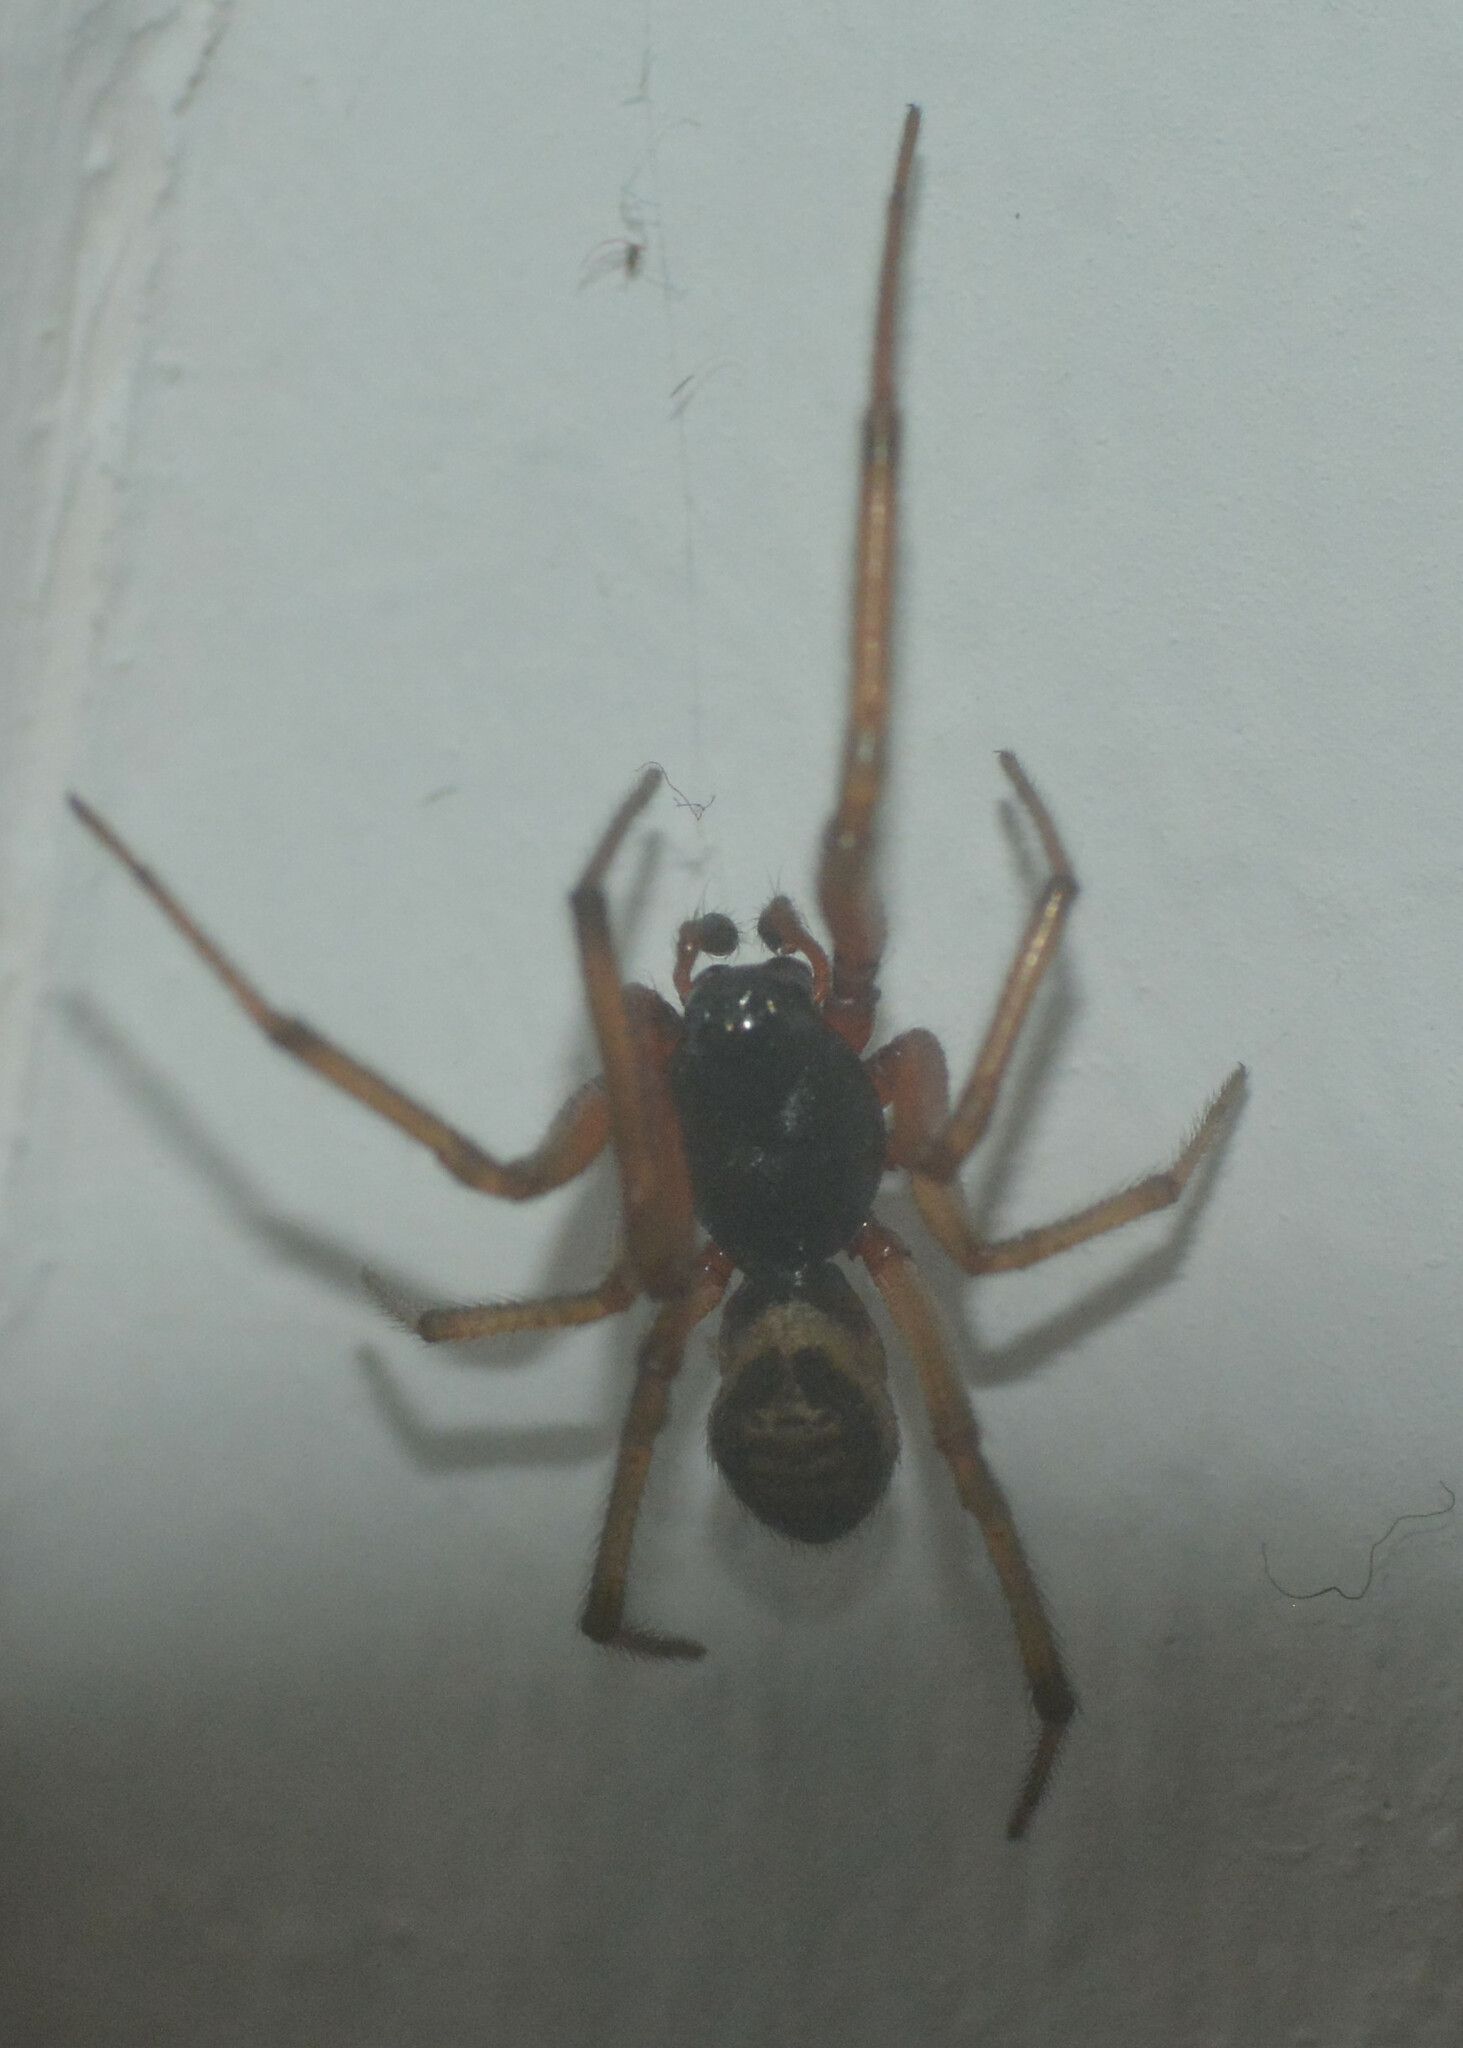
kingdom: Animalia
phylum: Arthropoda
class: Arachnida
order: Araneae
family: Theridiidae
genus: Steatoda
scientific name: Steatoda nobilis
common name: Cobweb weaver
